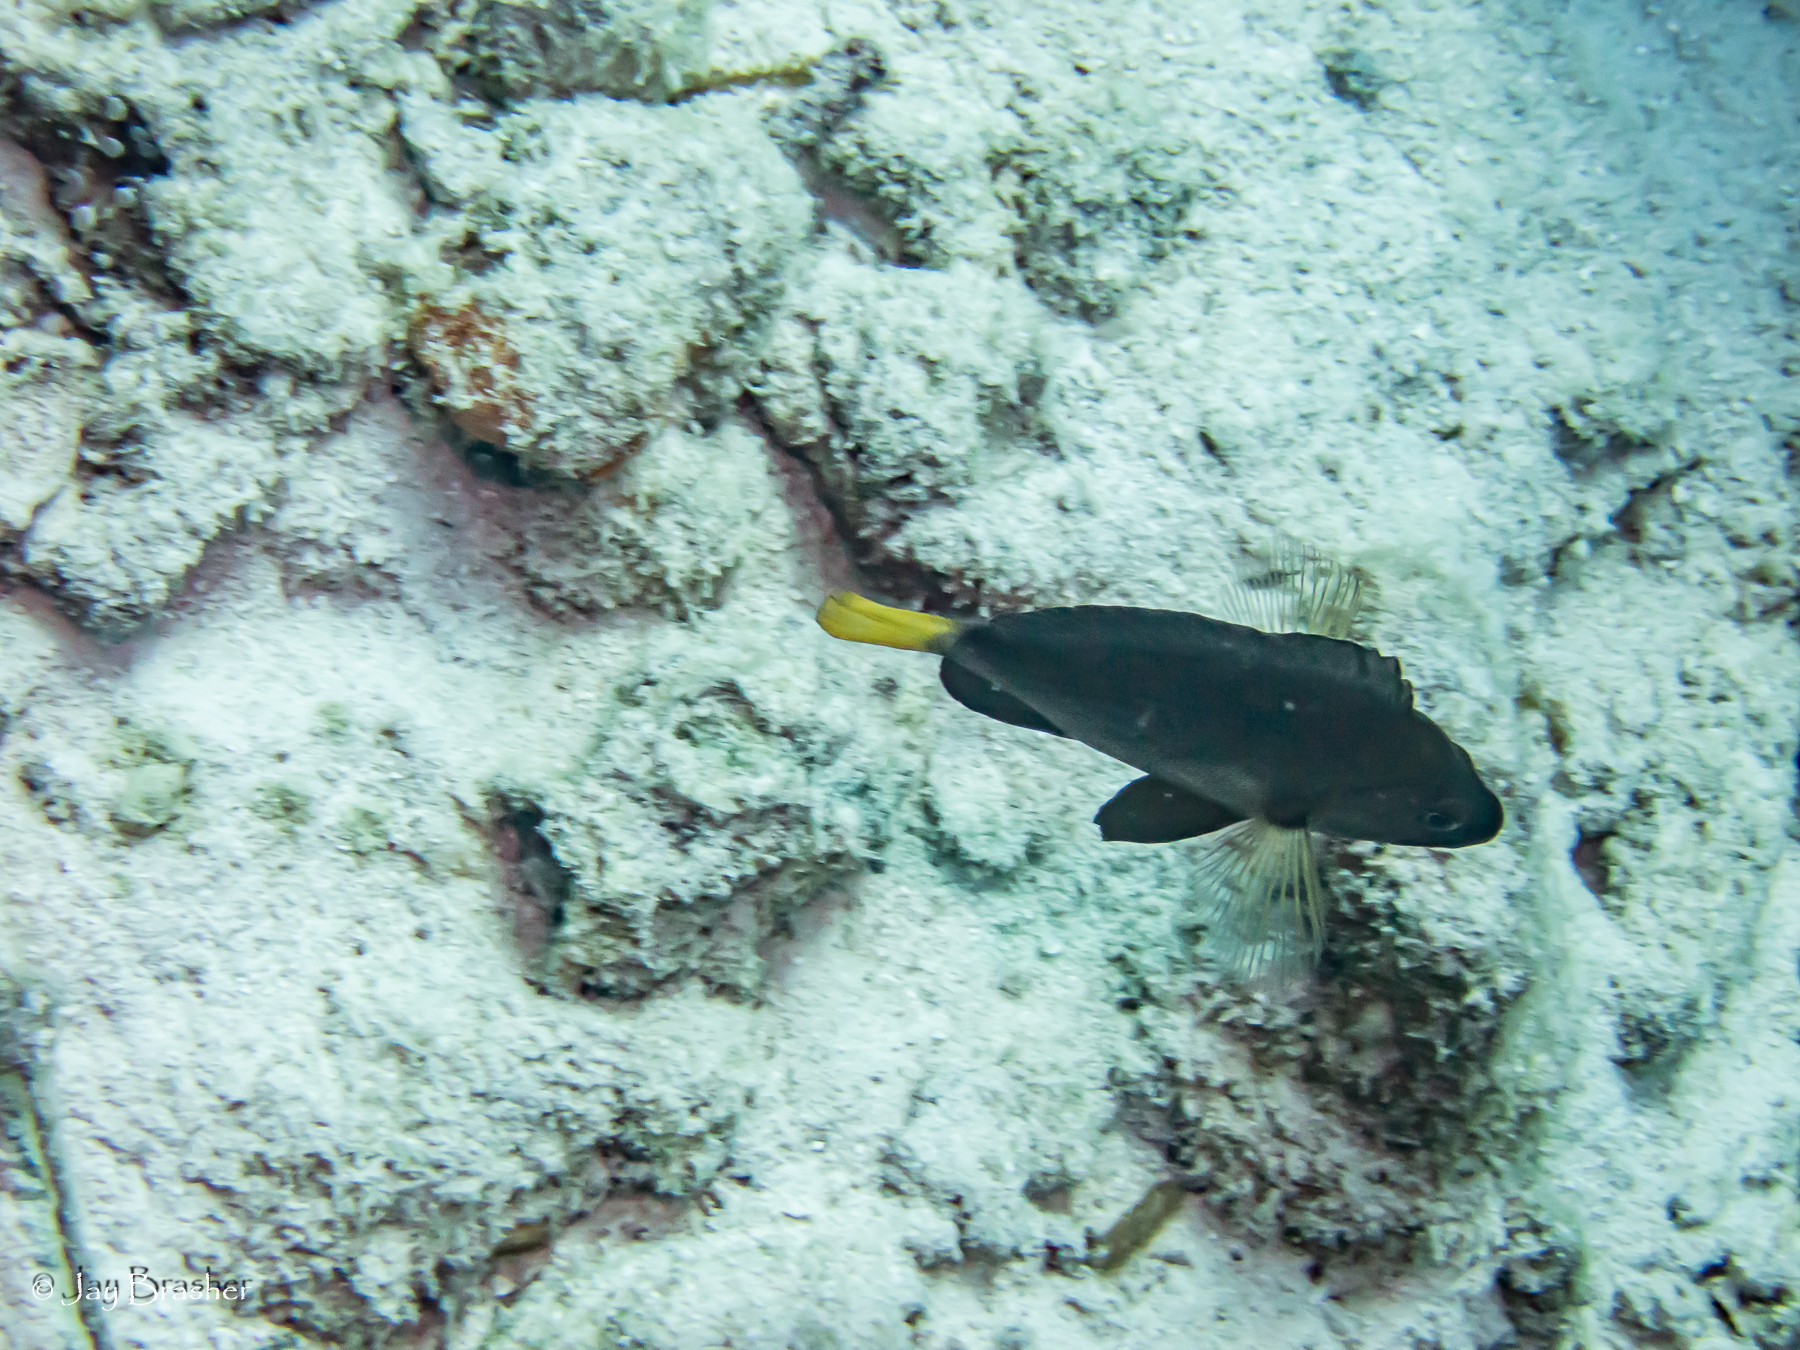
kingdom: Animalia
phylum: Chordata
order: Perciformes
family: Serranidae
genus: Hypoplectrus
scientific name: Hypoplectrus chlorurus
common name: Yellowtail hamlet
